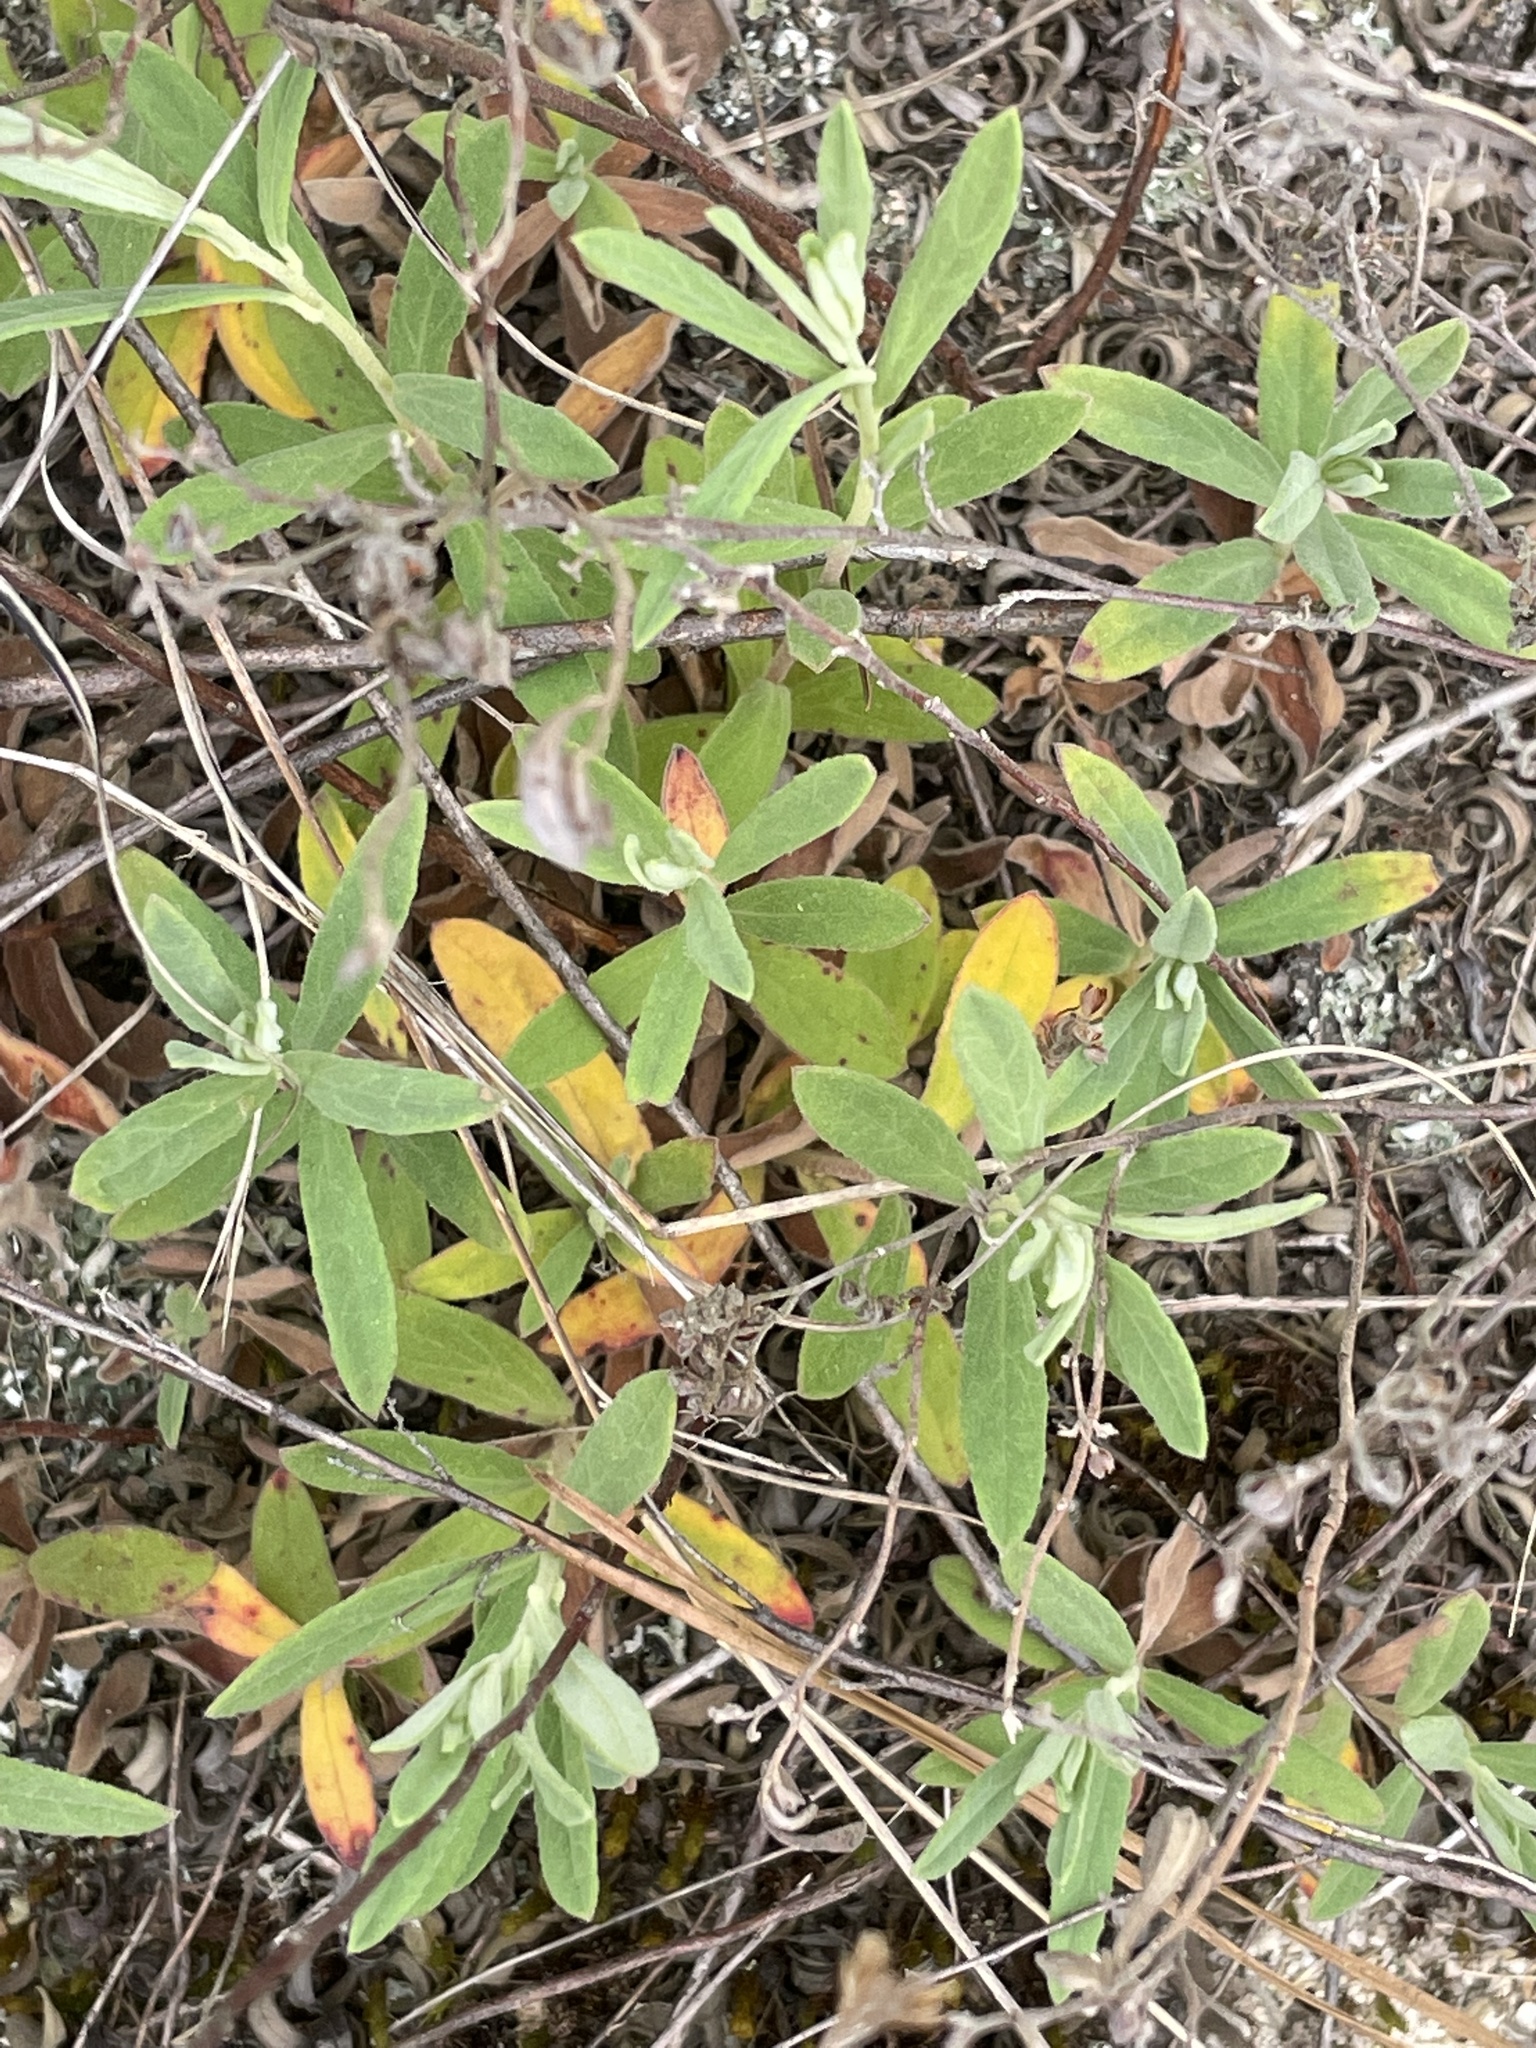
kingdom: Plantae
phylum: Tracheophyta
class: Magnoliopsida
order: Malvales
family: Cistaceae
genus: Crocanthemum
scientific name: Crocanthemum rosmarinifolium
